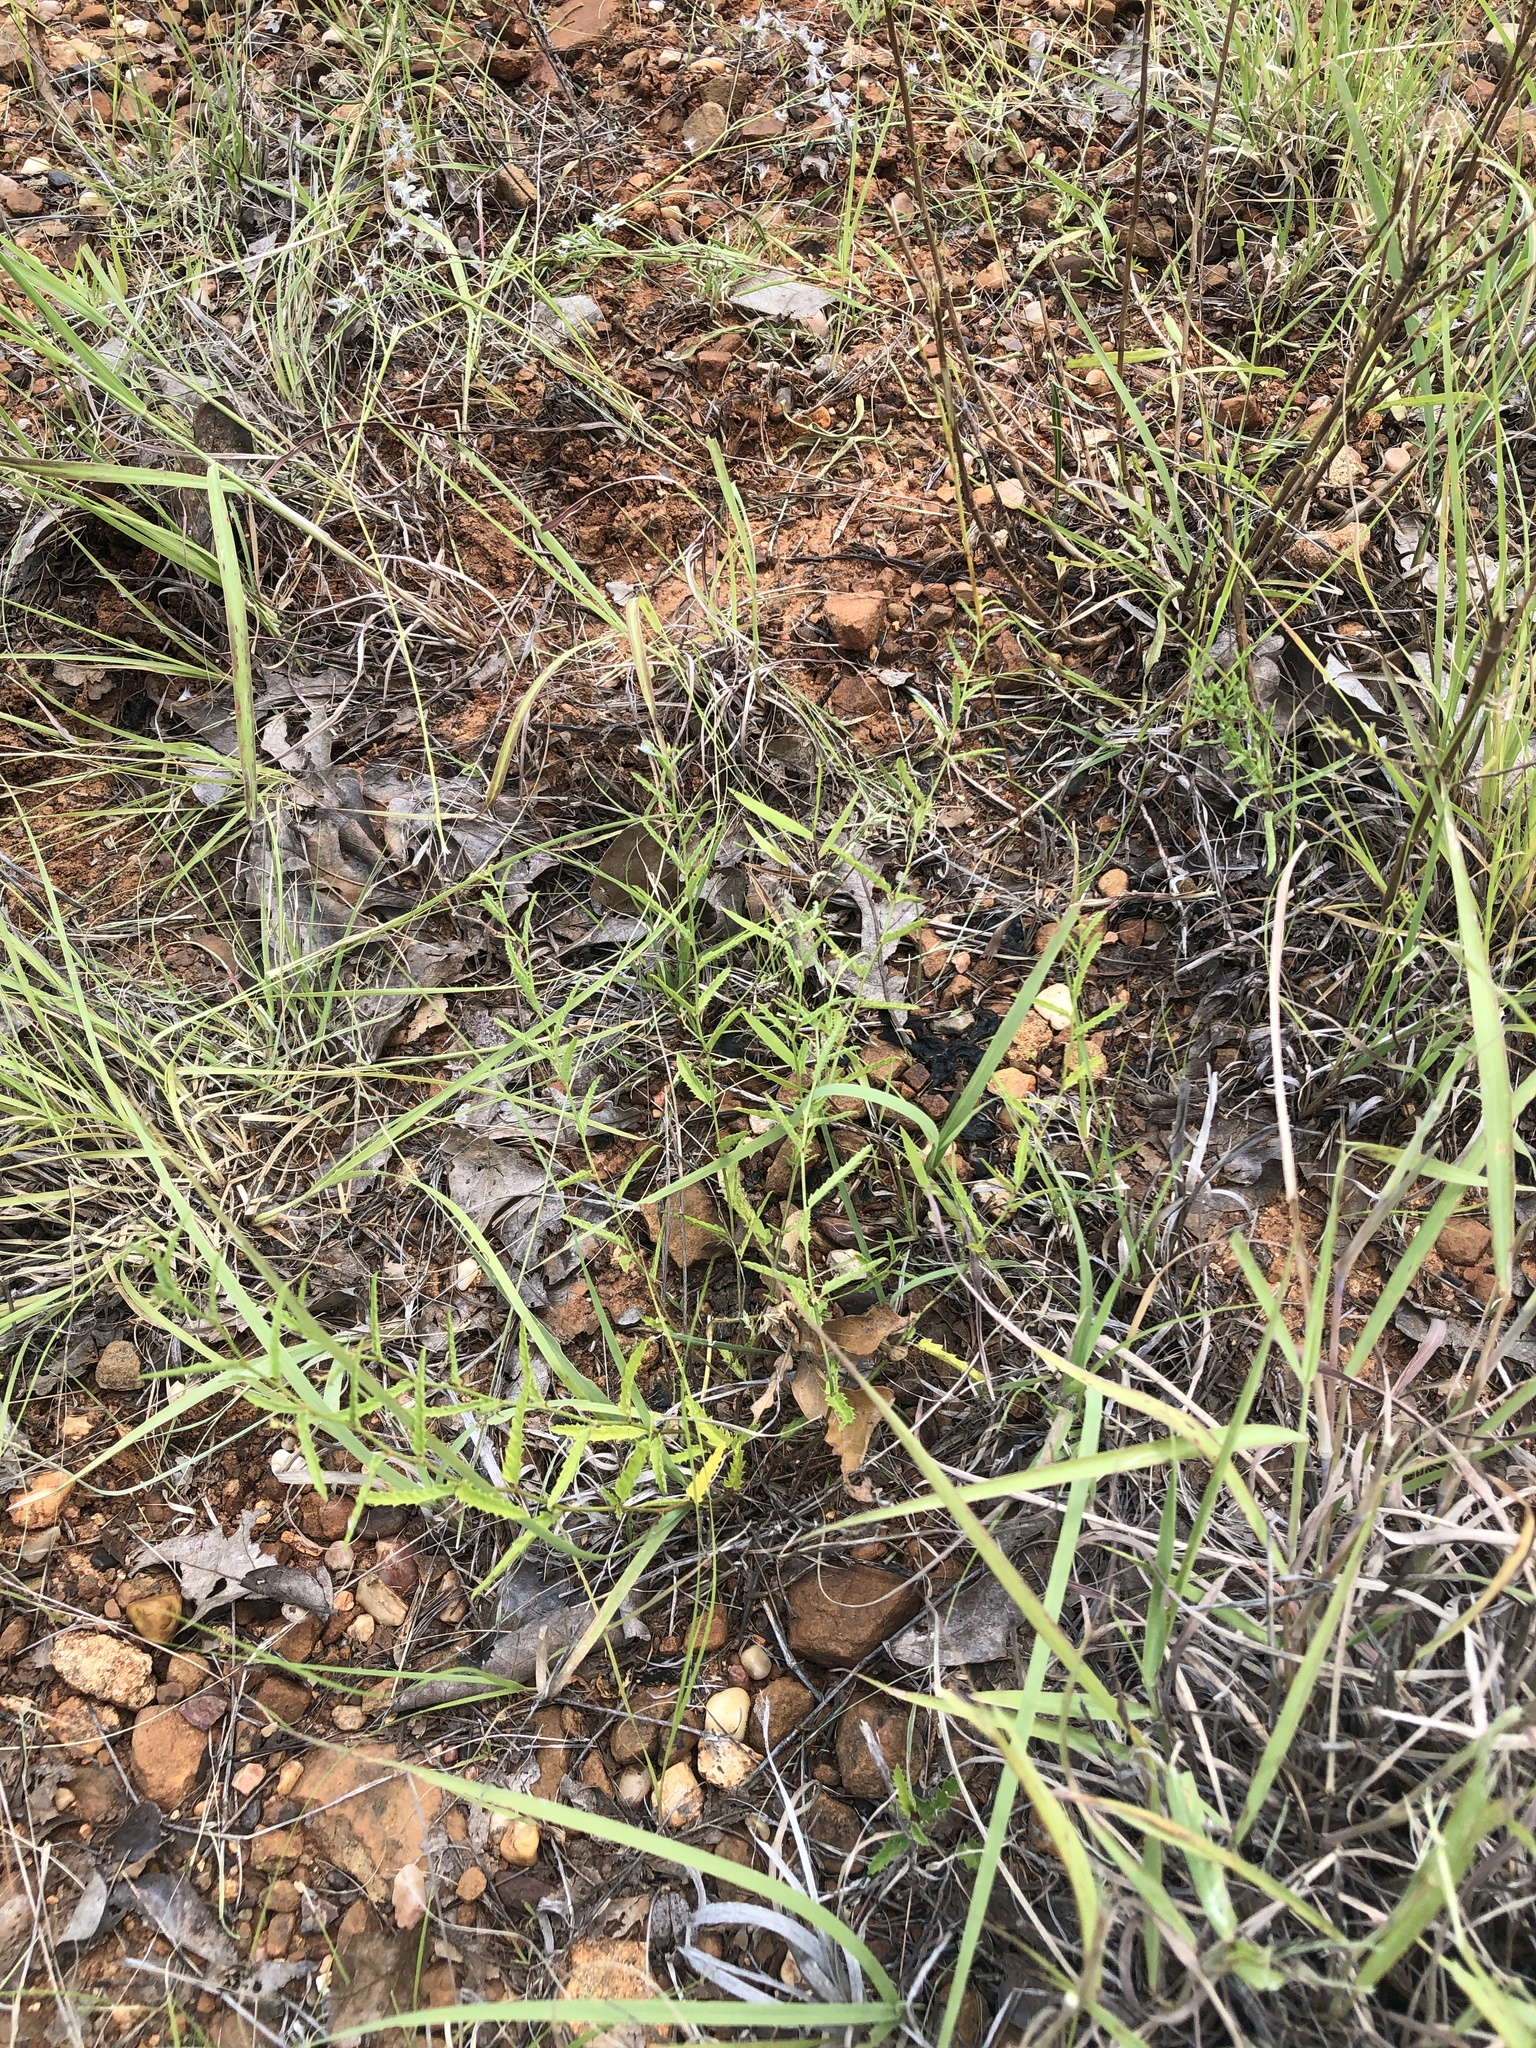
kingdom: Plantae
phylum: Tracheophyta
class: Magnoliopsida
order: Malpighiales
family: Euphorbiaceae
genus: Tragia
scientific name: Tragia ramosa
